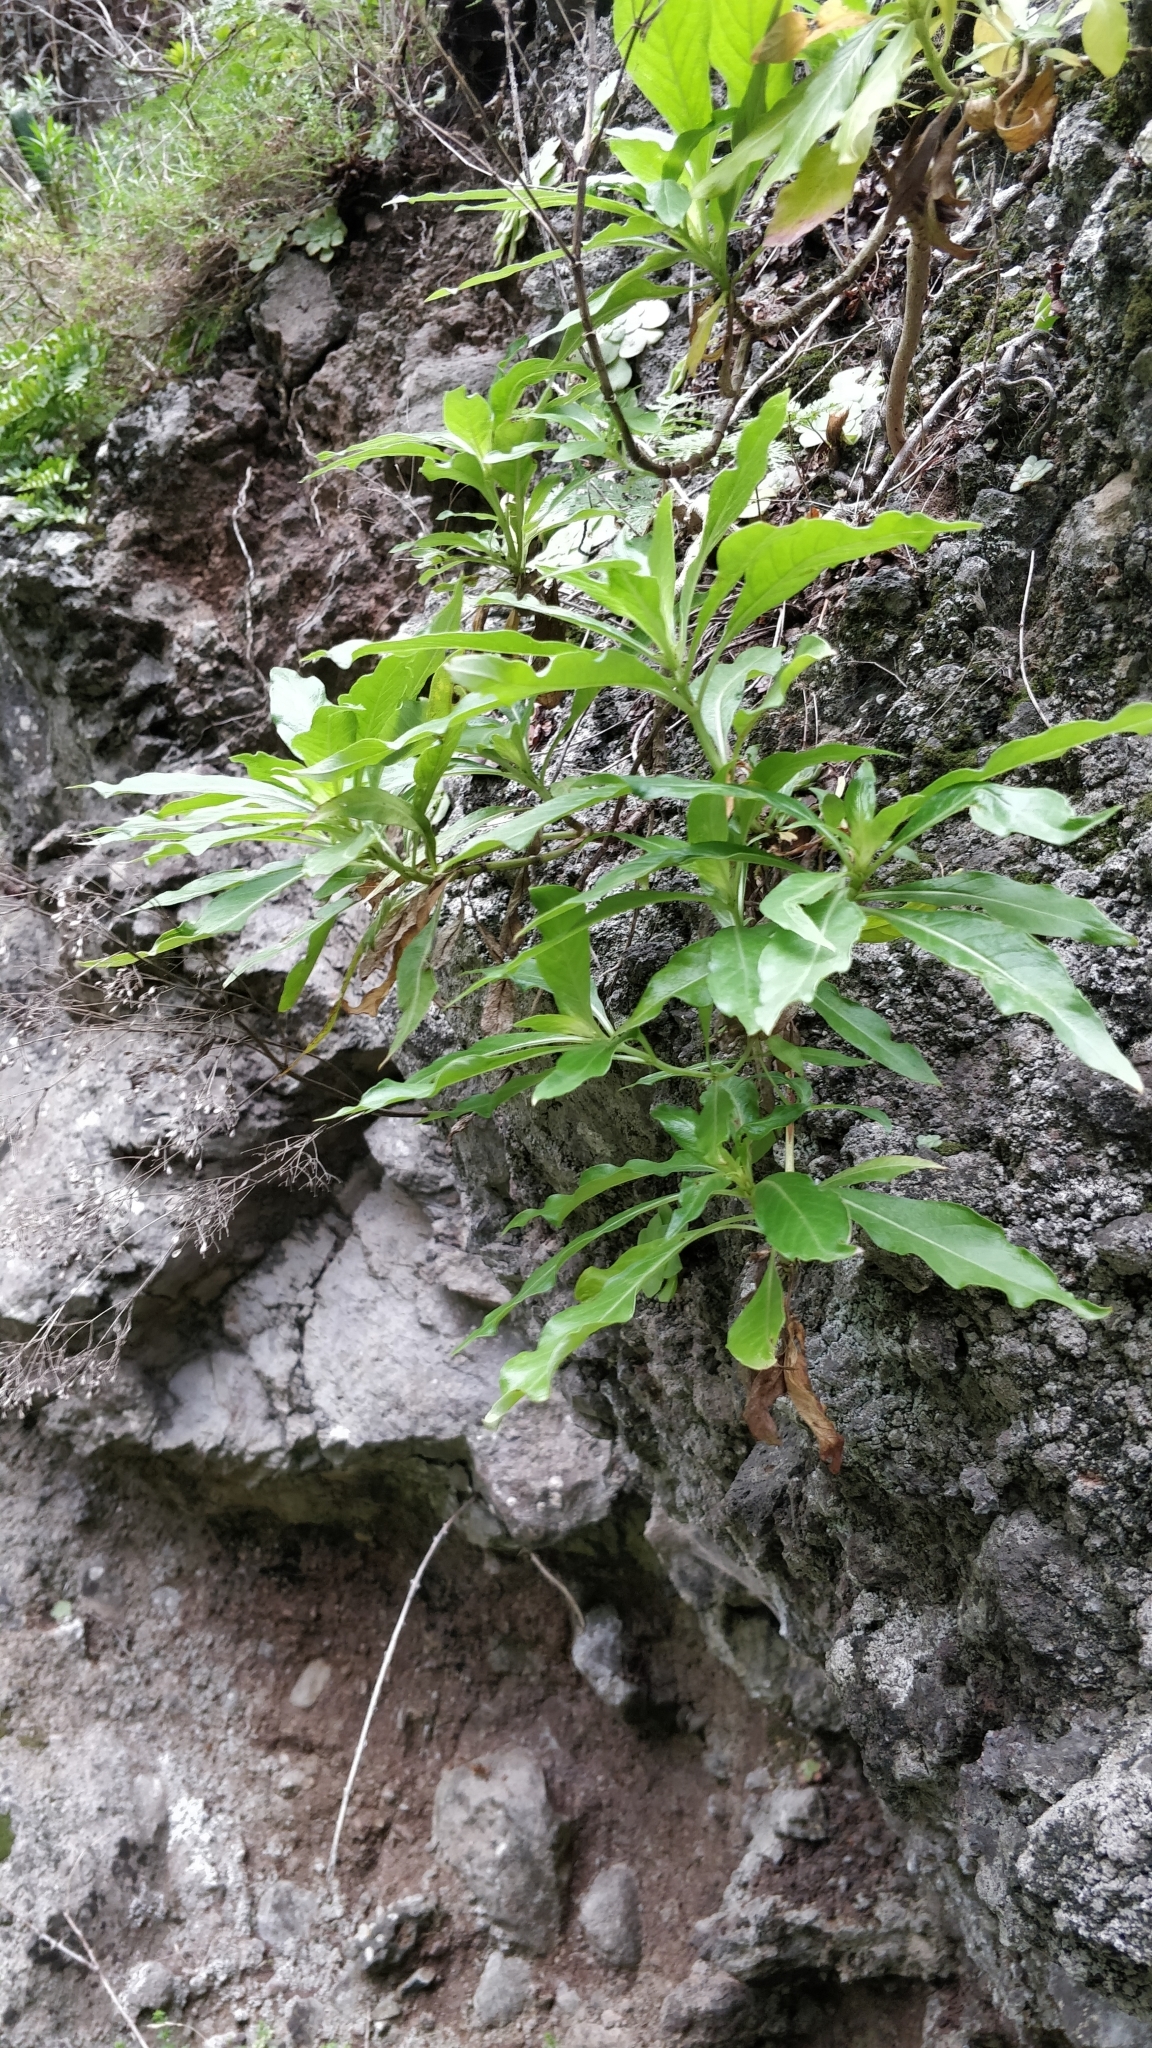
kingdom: Plantae
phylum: Tracheophyta
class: Magnoliopsida
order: Gentianales
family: Rubiaceae
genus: Phyllis
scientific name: Phyllis nobla
